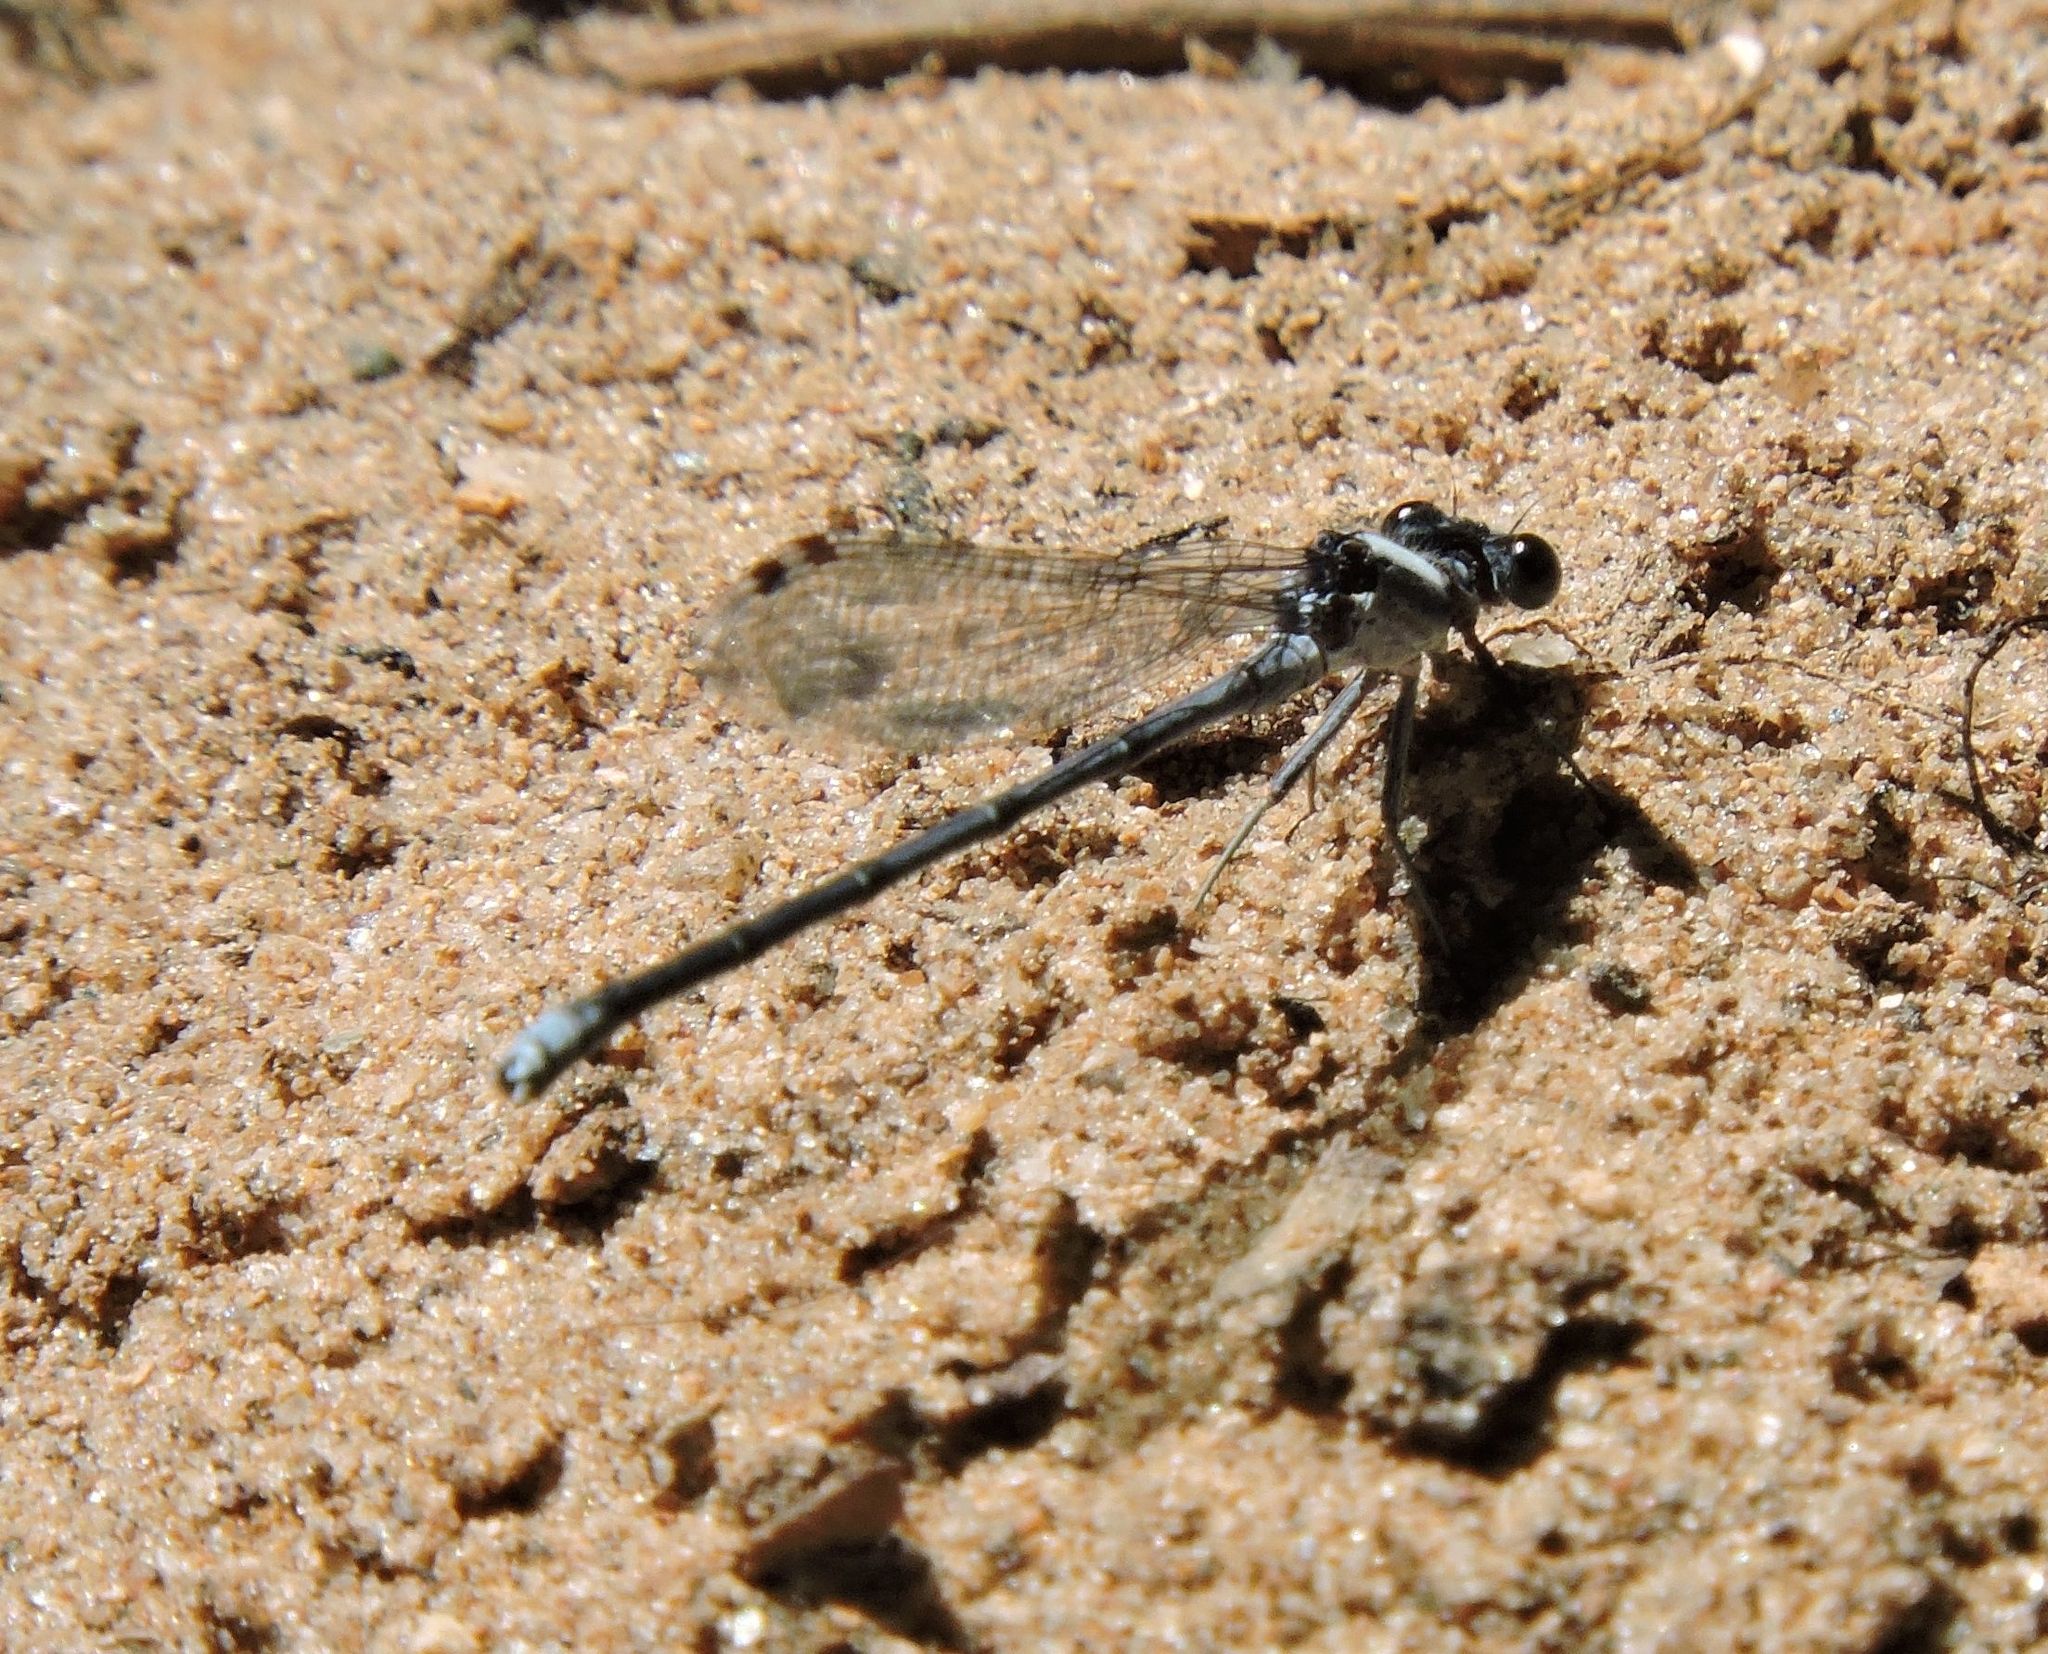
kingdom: Animalia
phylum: Arthropoda
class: Insecta
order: Odonata
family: Coenagrionidae
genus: Argia
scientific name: Argia moesta
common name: Powdered dancer
